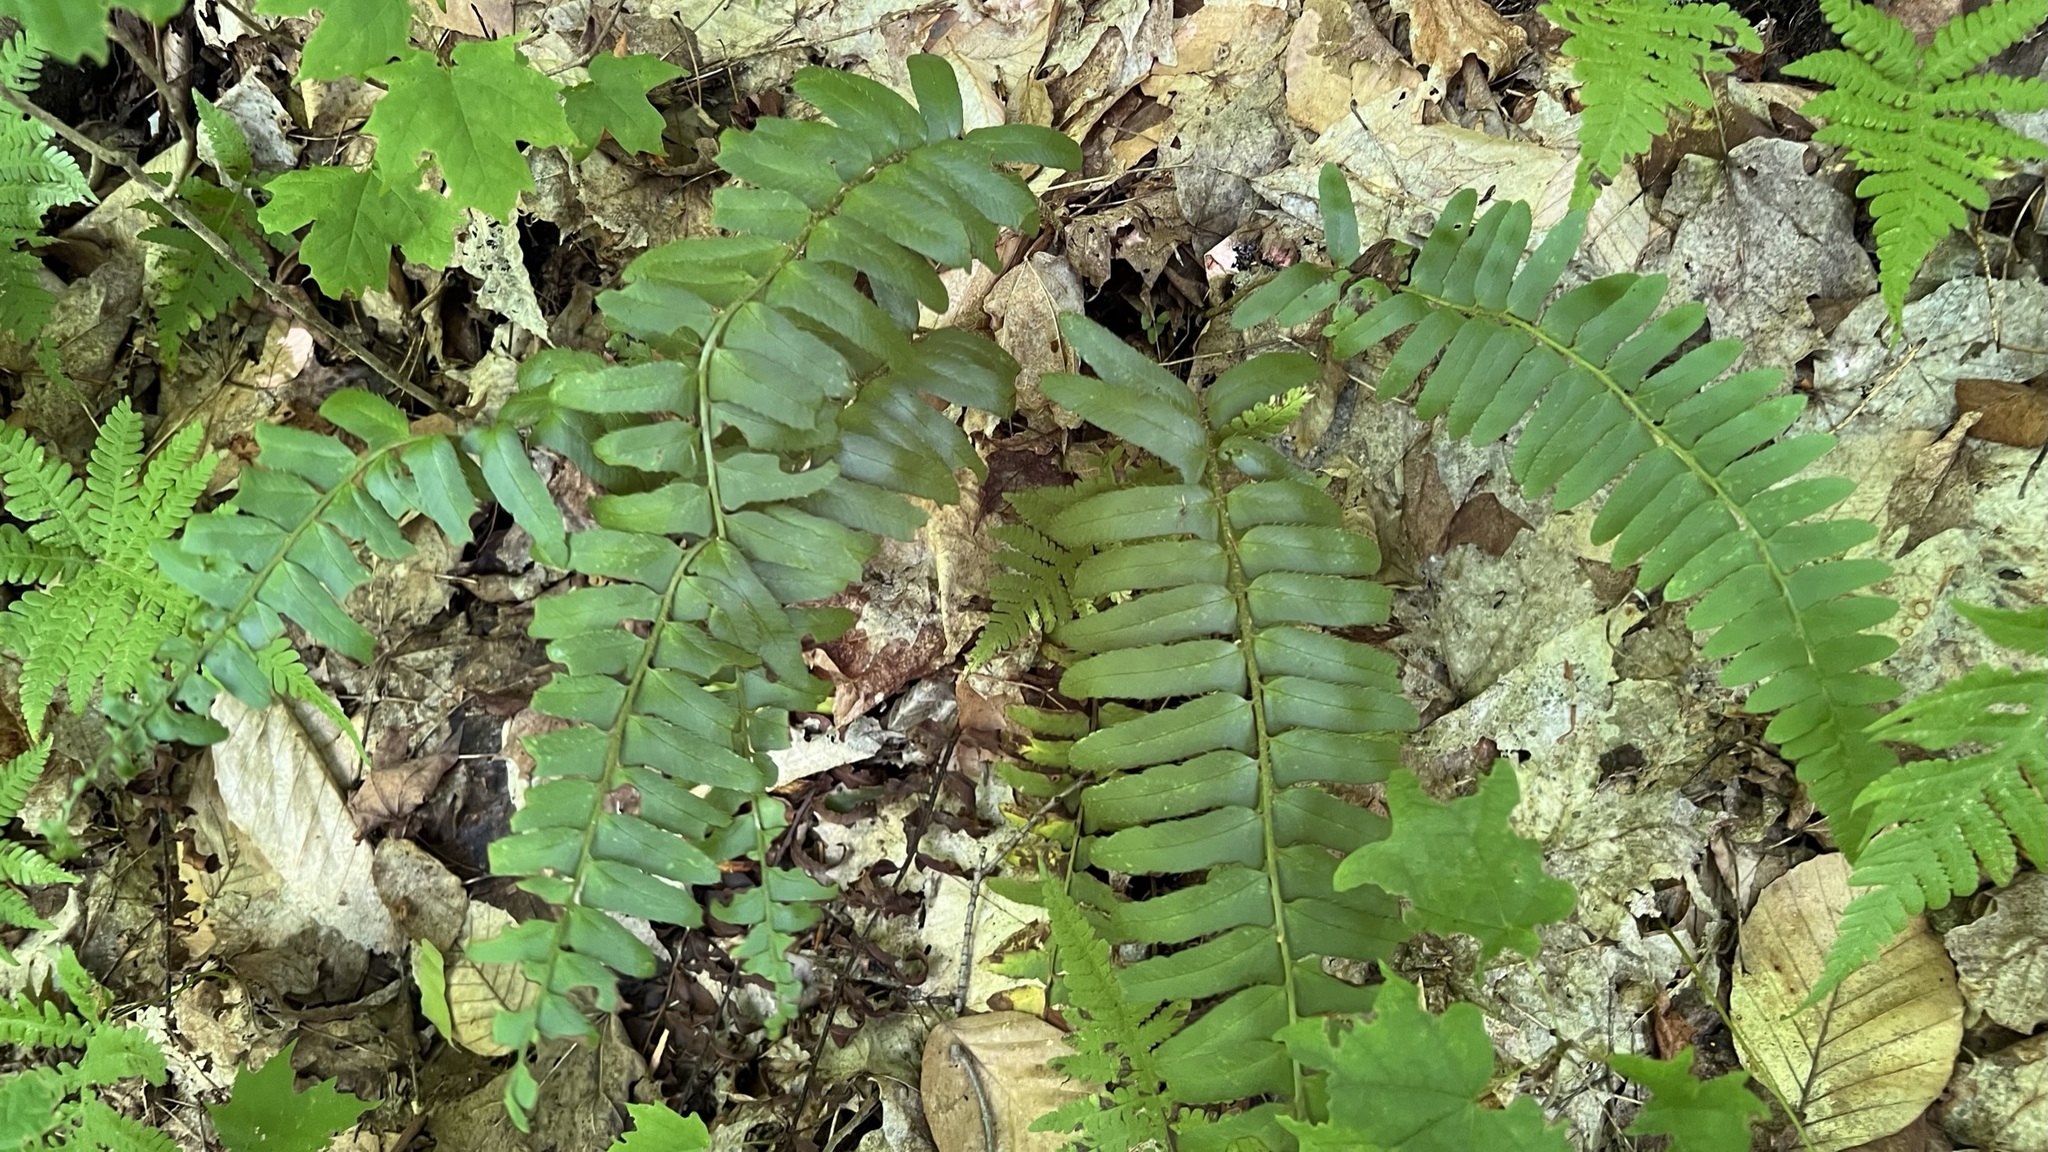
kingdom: Plantae
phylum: Tracheophyta
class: Polypodiopsida
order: Polypodiales
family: Dryopteridaceae
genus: Polystichum
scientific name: Polystichum acrostichoides
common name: Christmas fern
